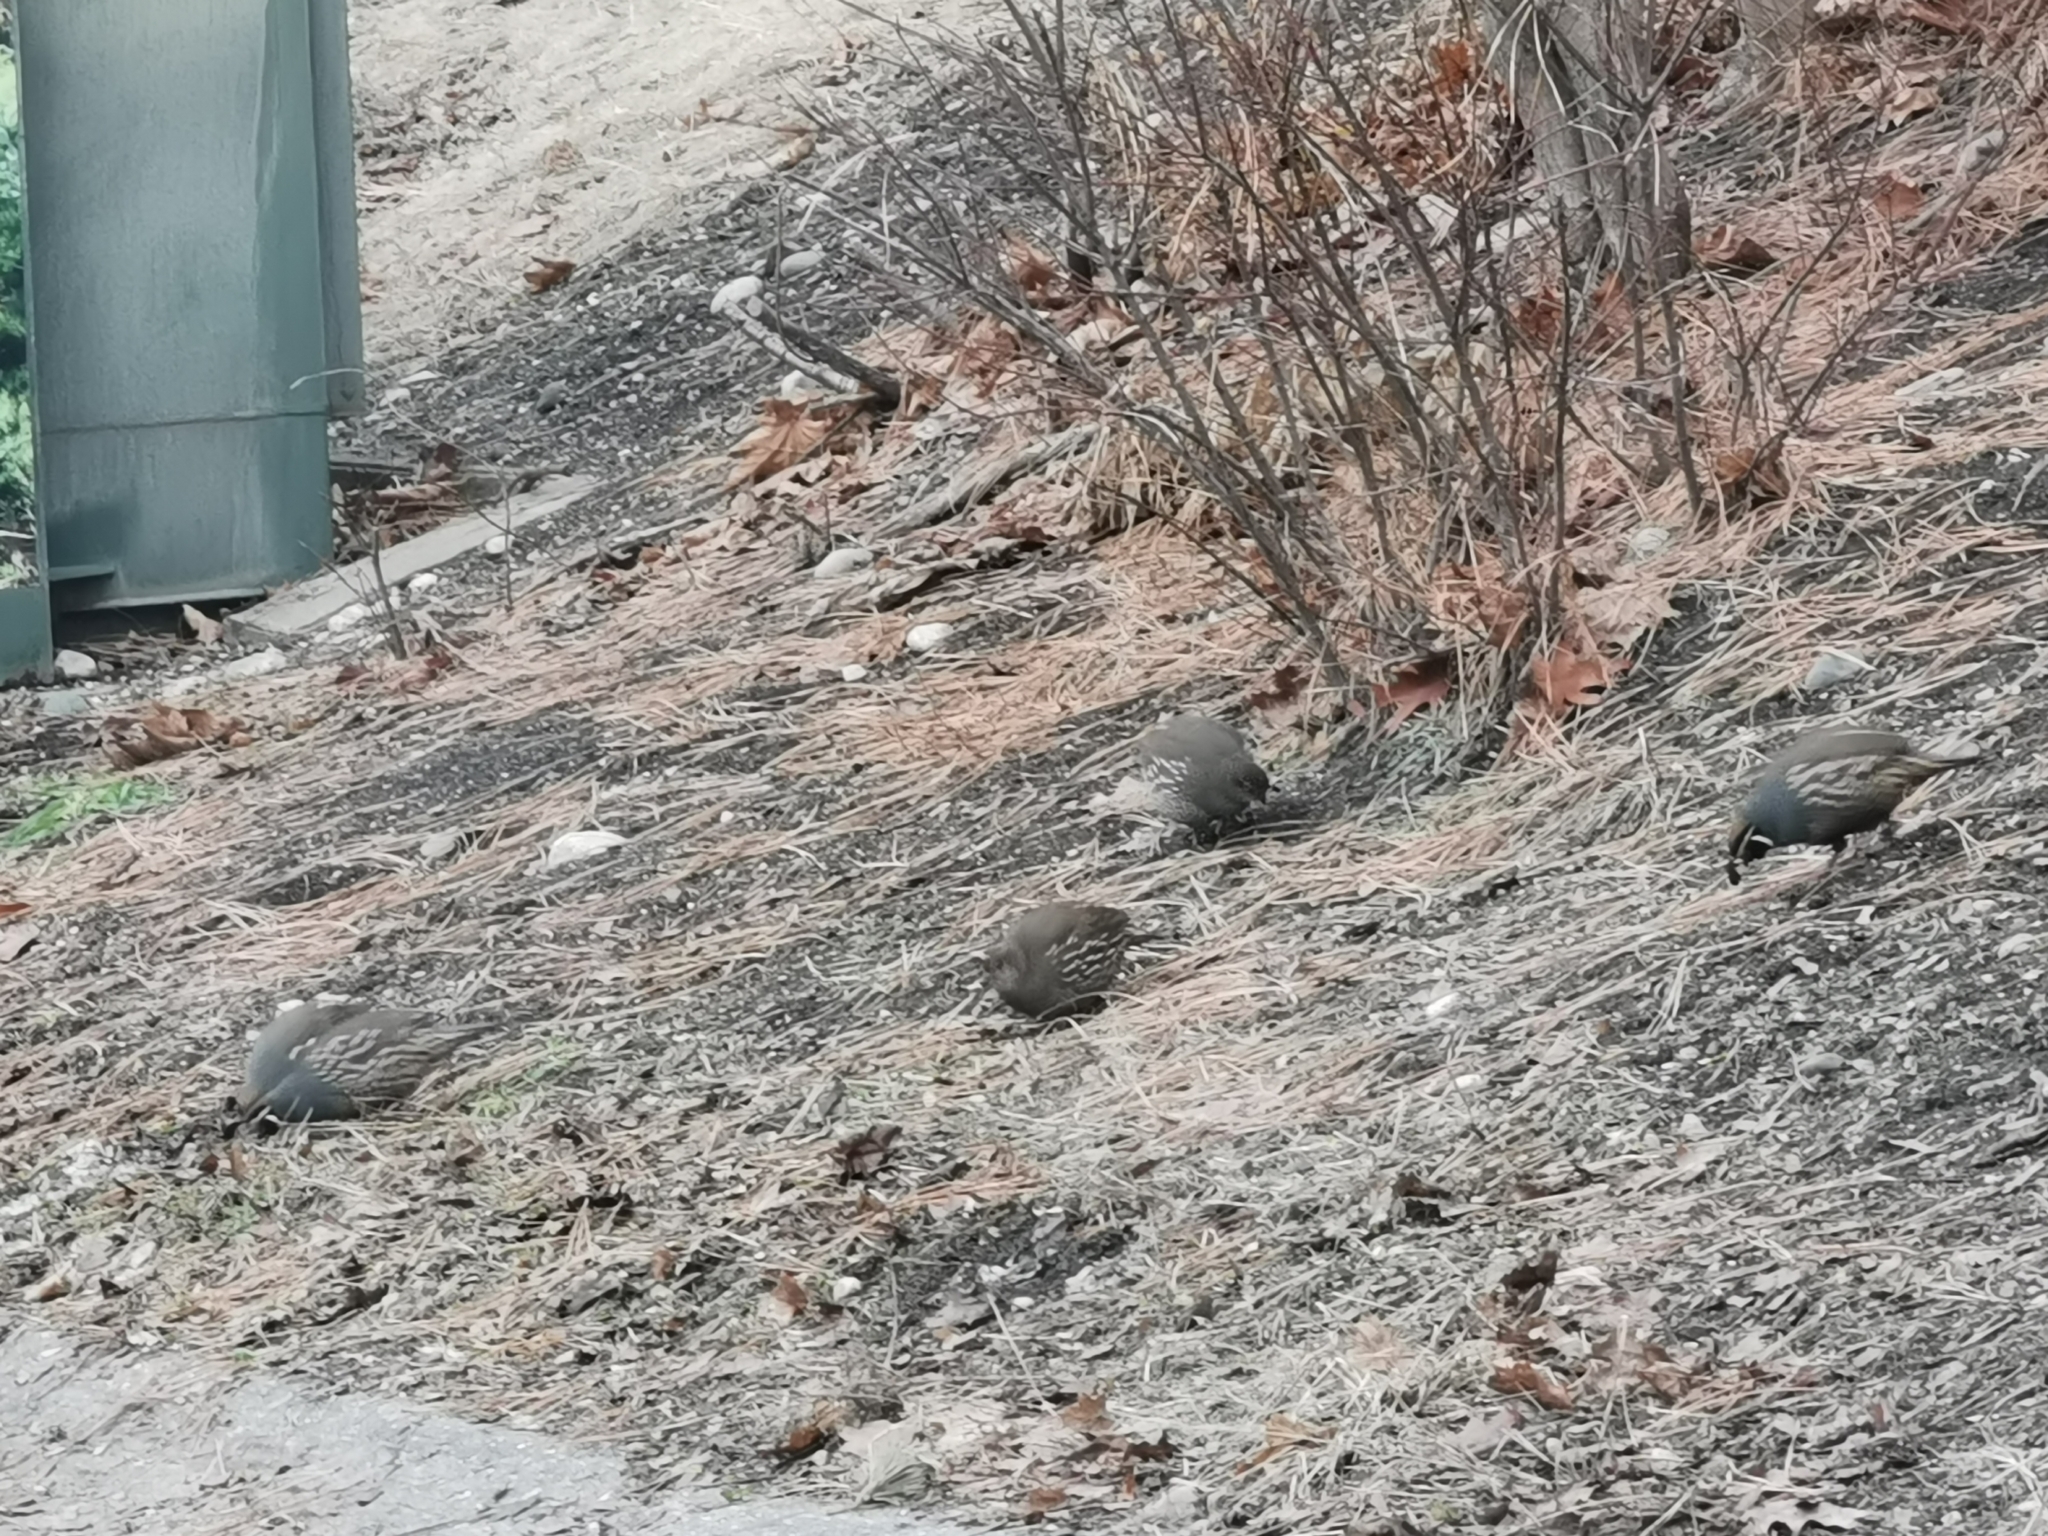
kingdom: Animalia
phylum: Chordata
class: Aves
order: Galliformes
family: Odontophoridae
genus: Callipepla
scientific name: Callipepla californica
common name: California quail
